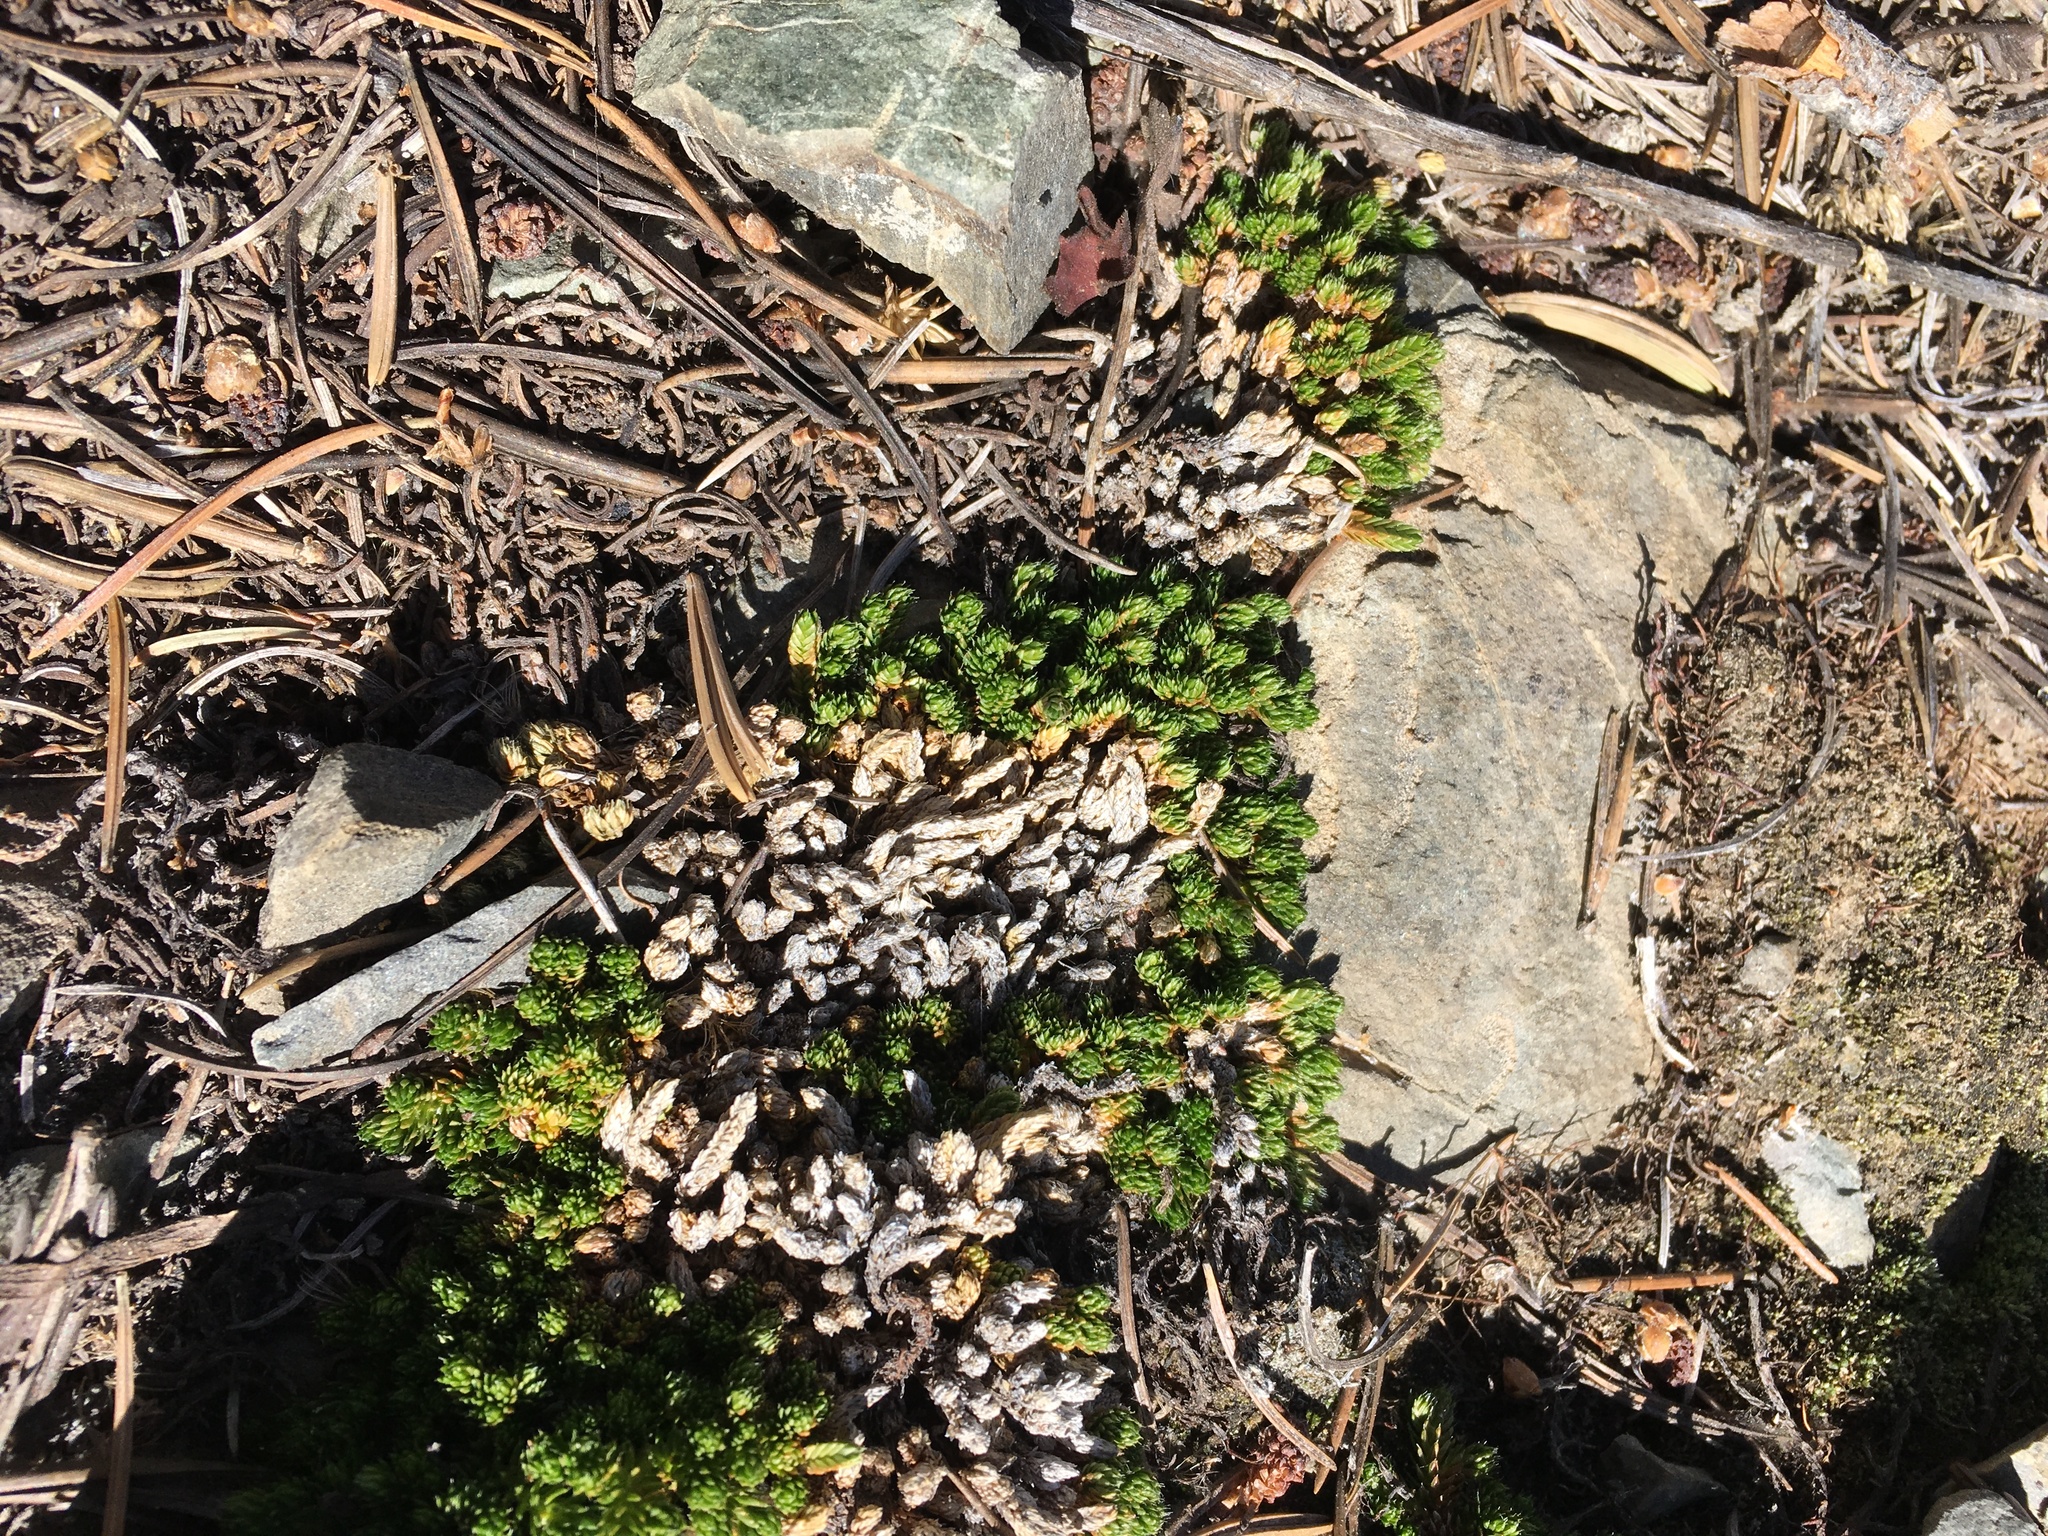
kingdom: Plantae
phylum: Tracheophyta
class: Lycopodiopsida
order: Selaginellales
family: Selaginellaceae
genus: Selaginella
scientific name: Selaginella watsonii
